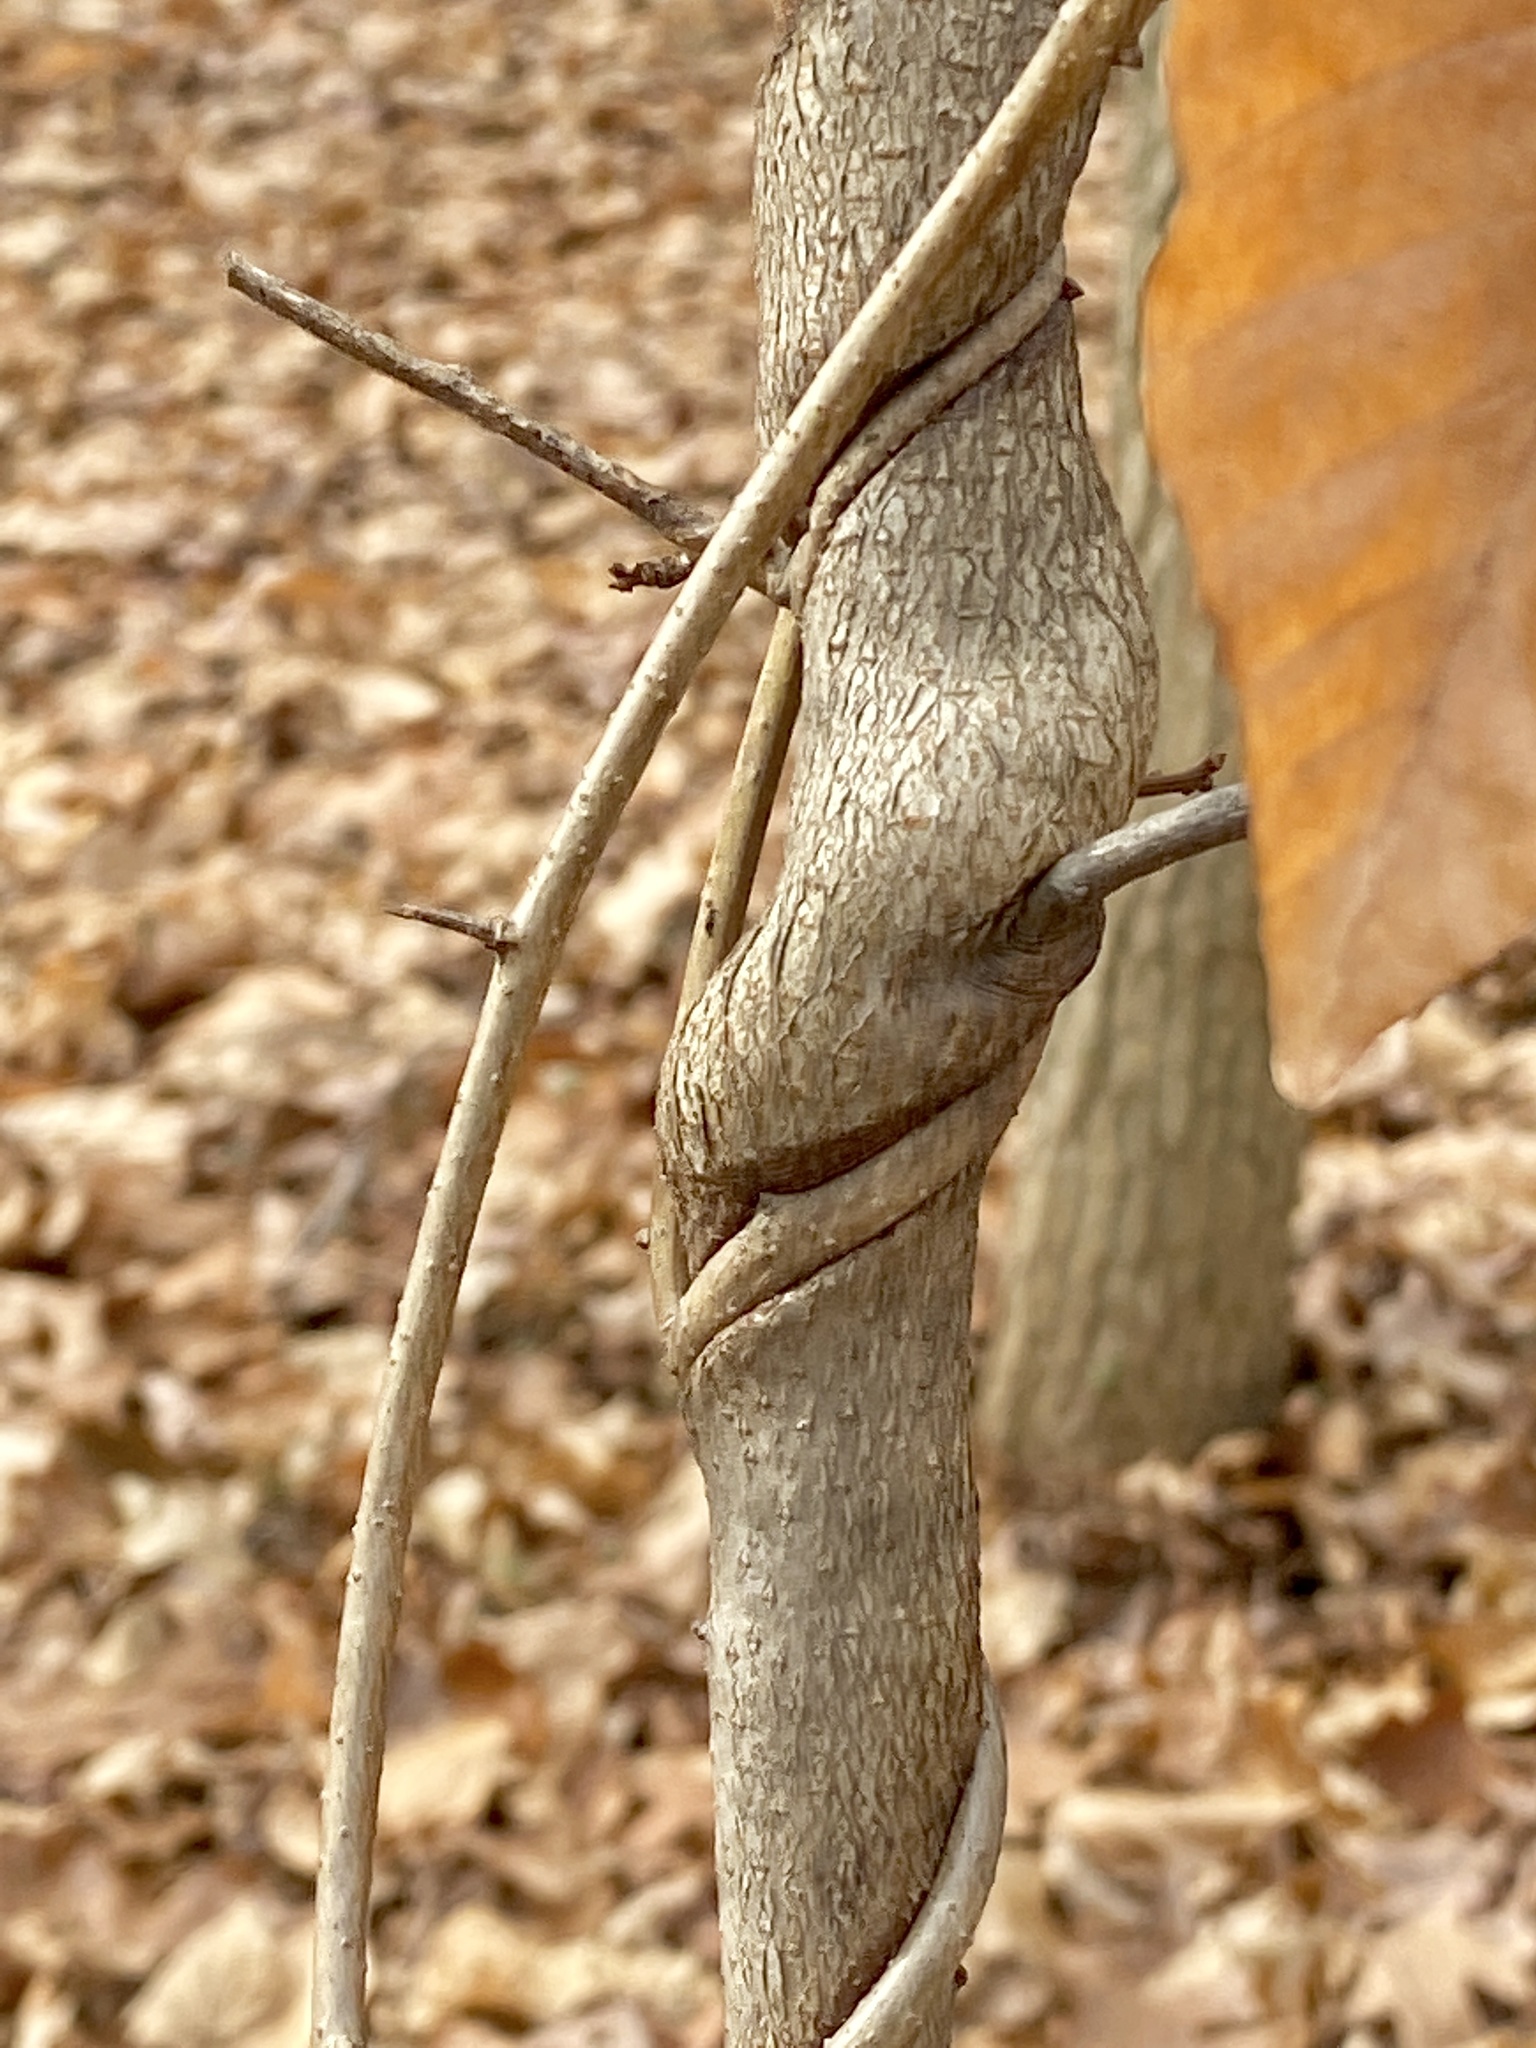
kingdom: Plantae
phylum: Tracheophyta
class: Magnoliopsida
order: Celastrales
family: Celastraceae
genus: Celastrus
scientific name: Celastrus orbiculatus
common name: Oriental bittersweet
